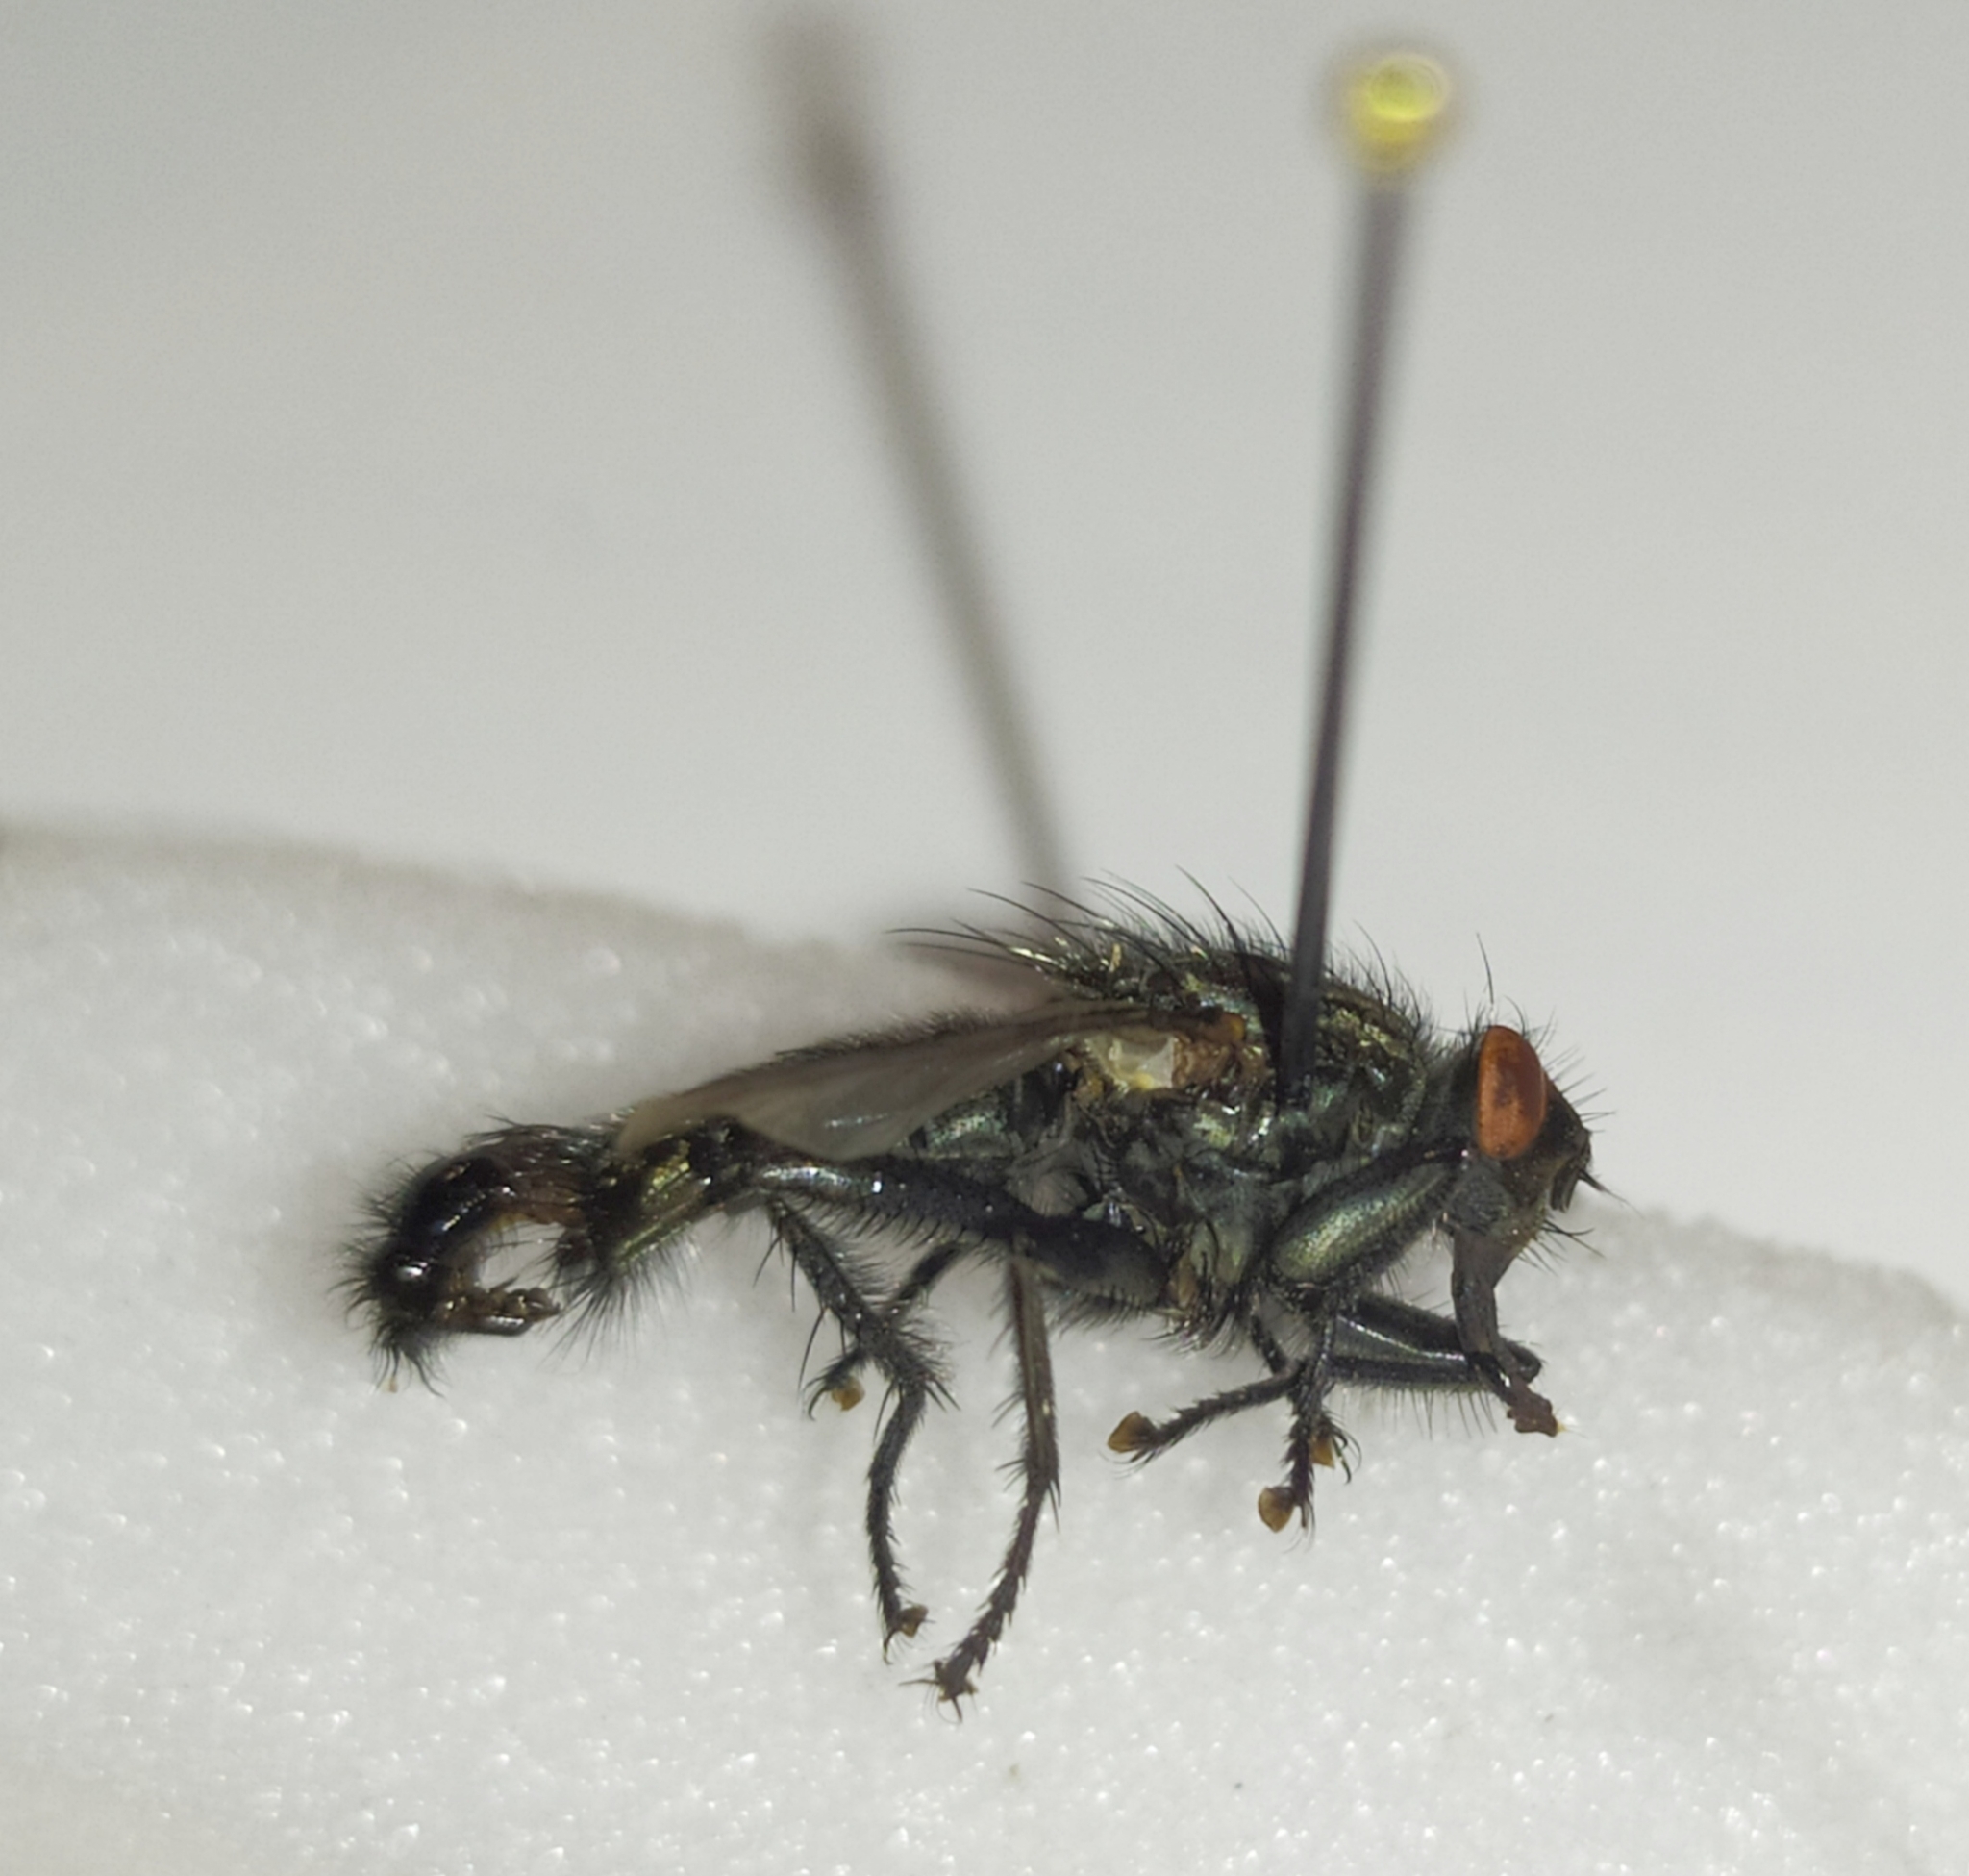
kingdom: Animalia
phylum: Arthropoda
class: Insecta
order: Diptera
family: Sarcophagidae
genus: Sarcophaga
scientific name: Sarcophaga carnaria
